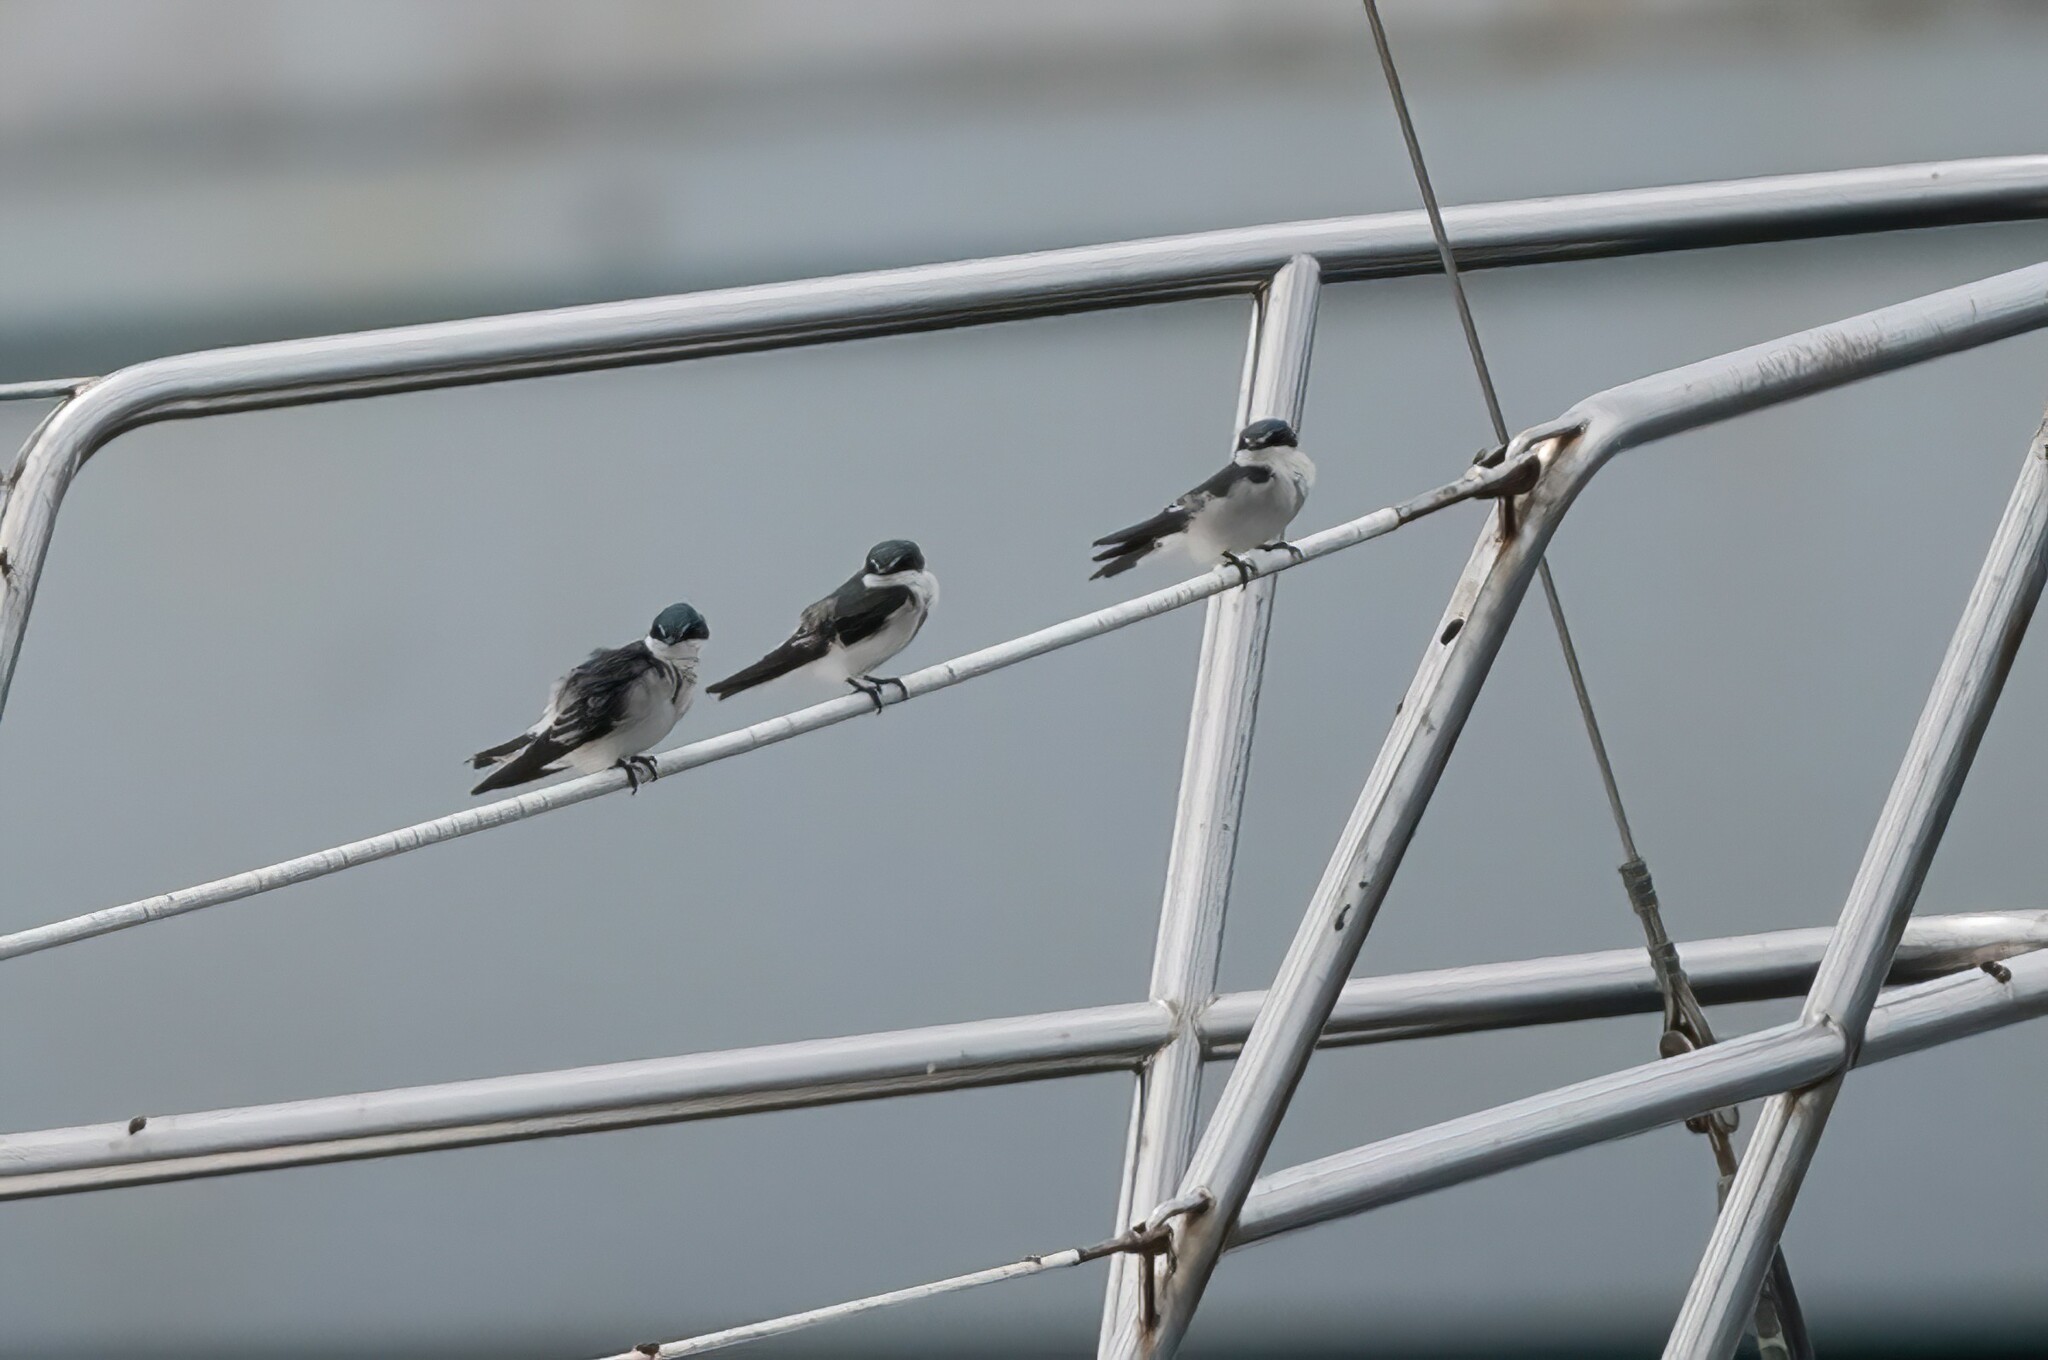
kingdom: Animalia
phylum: Chordata
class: Aves
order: Passeriformes
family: Hirundinidae
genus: Tachycineta
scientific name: Tachycineta albilinea
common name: Mangrove swallow
